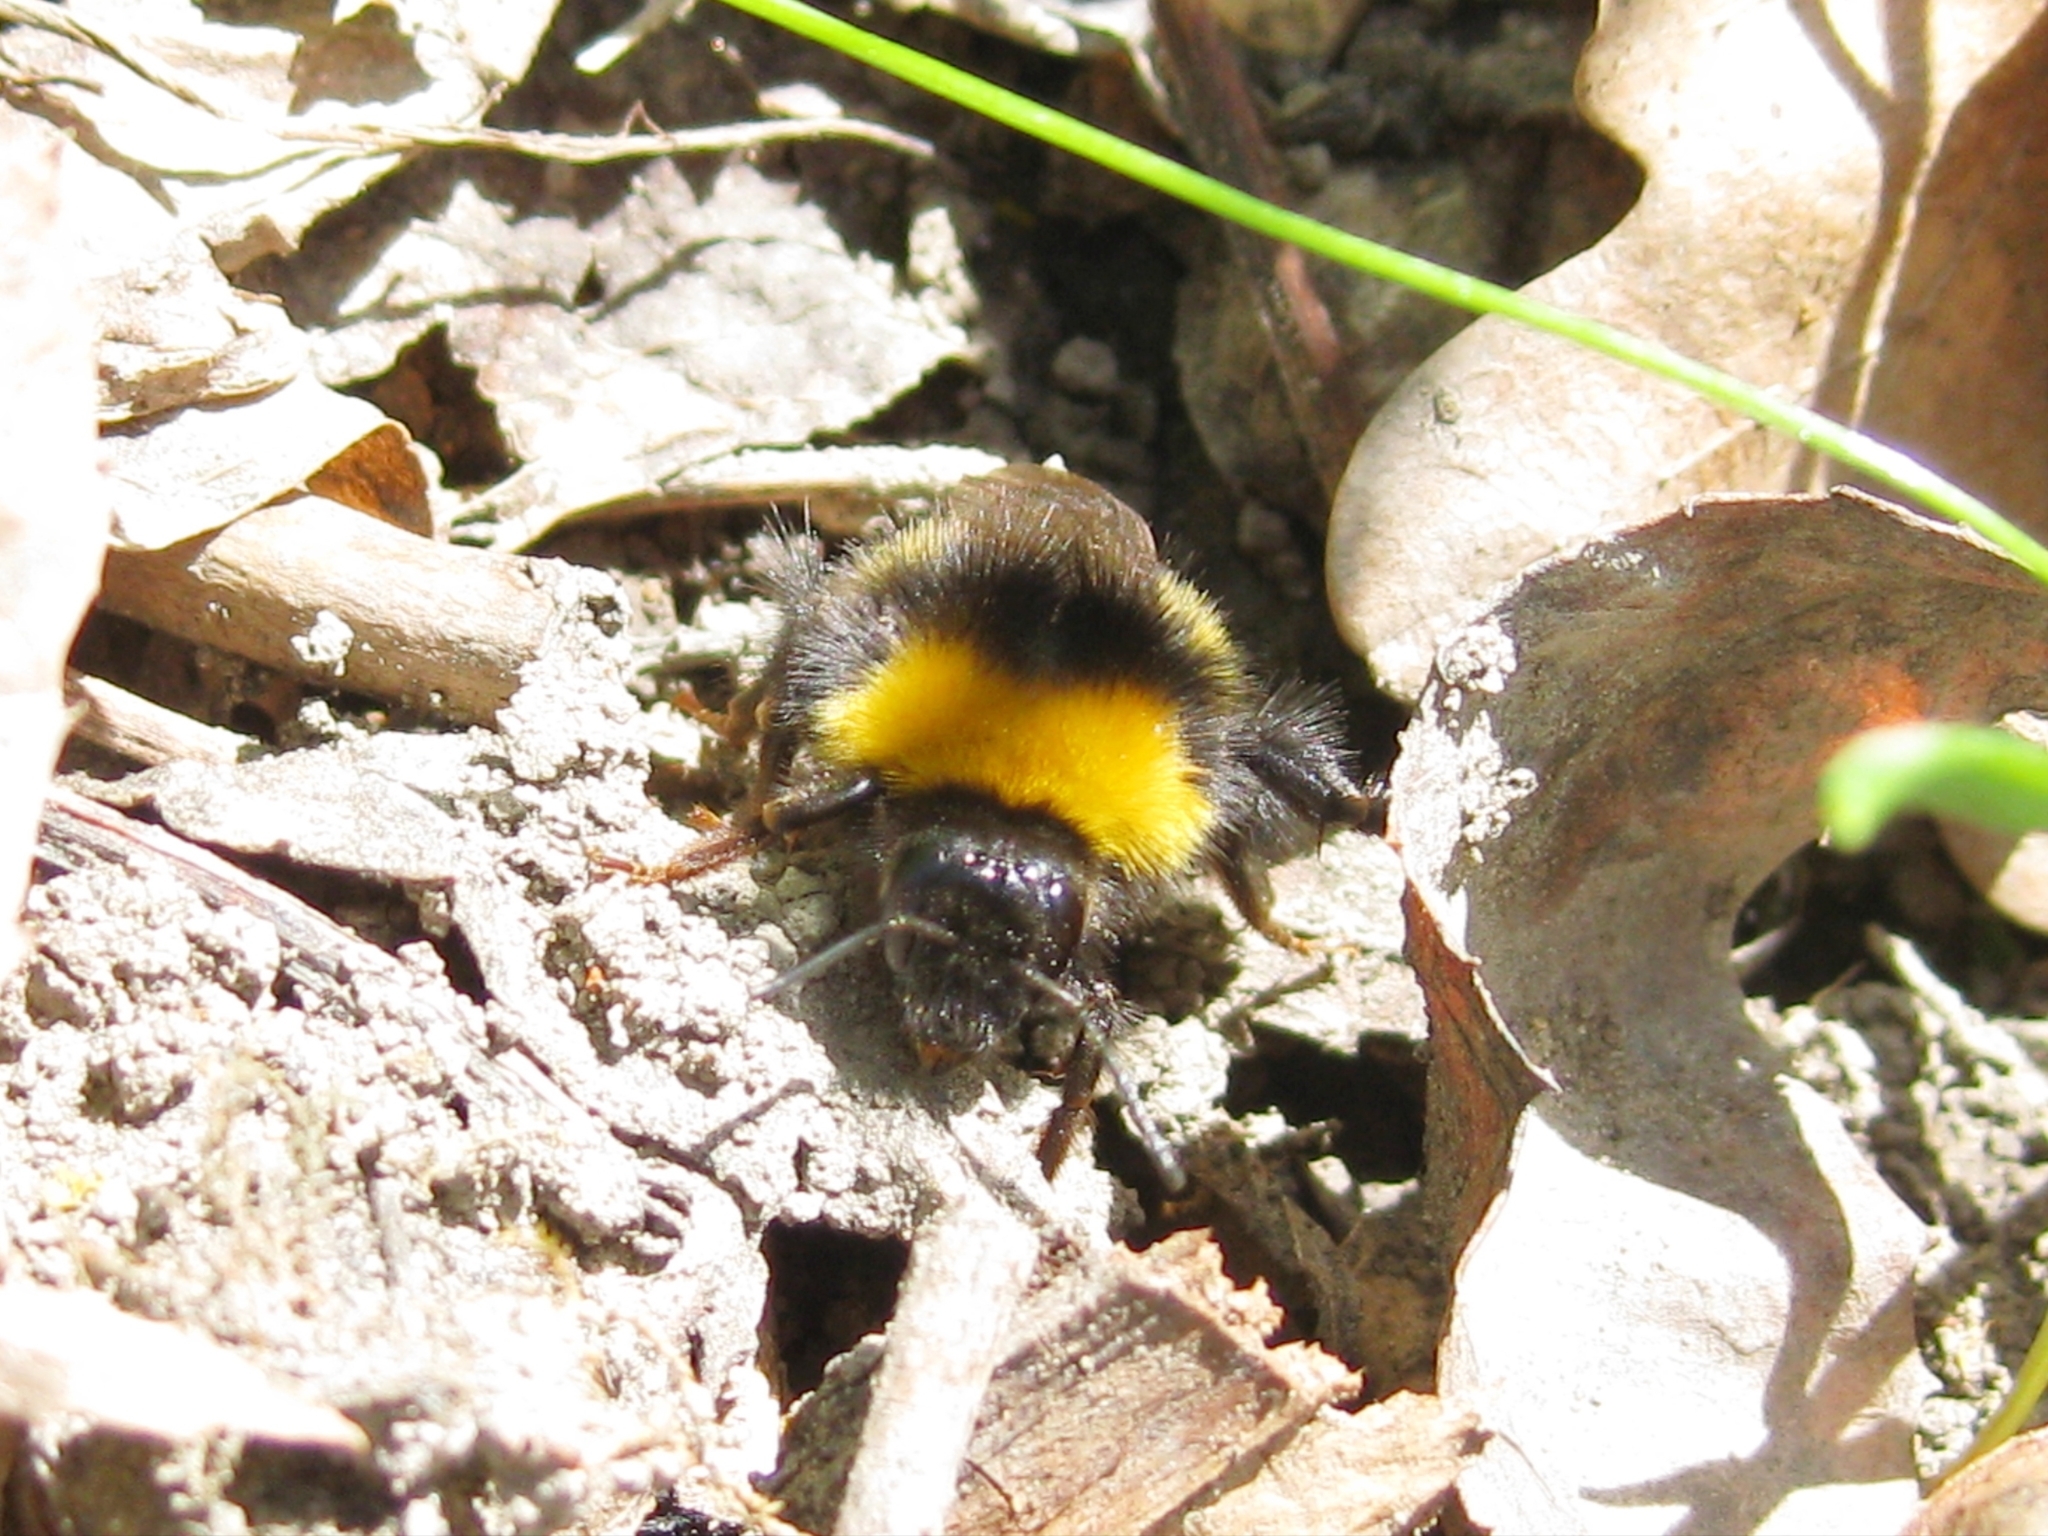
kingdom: Animalia
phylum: Arthropoda
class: Insecta
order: Hymenoptera
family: Apidae
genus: Bombus
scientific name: Bombus
